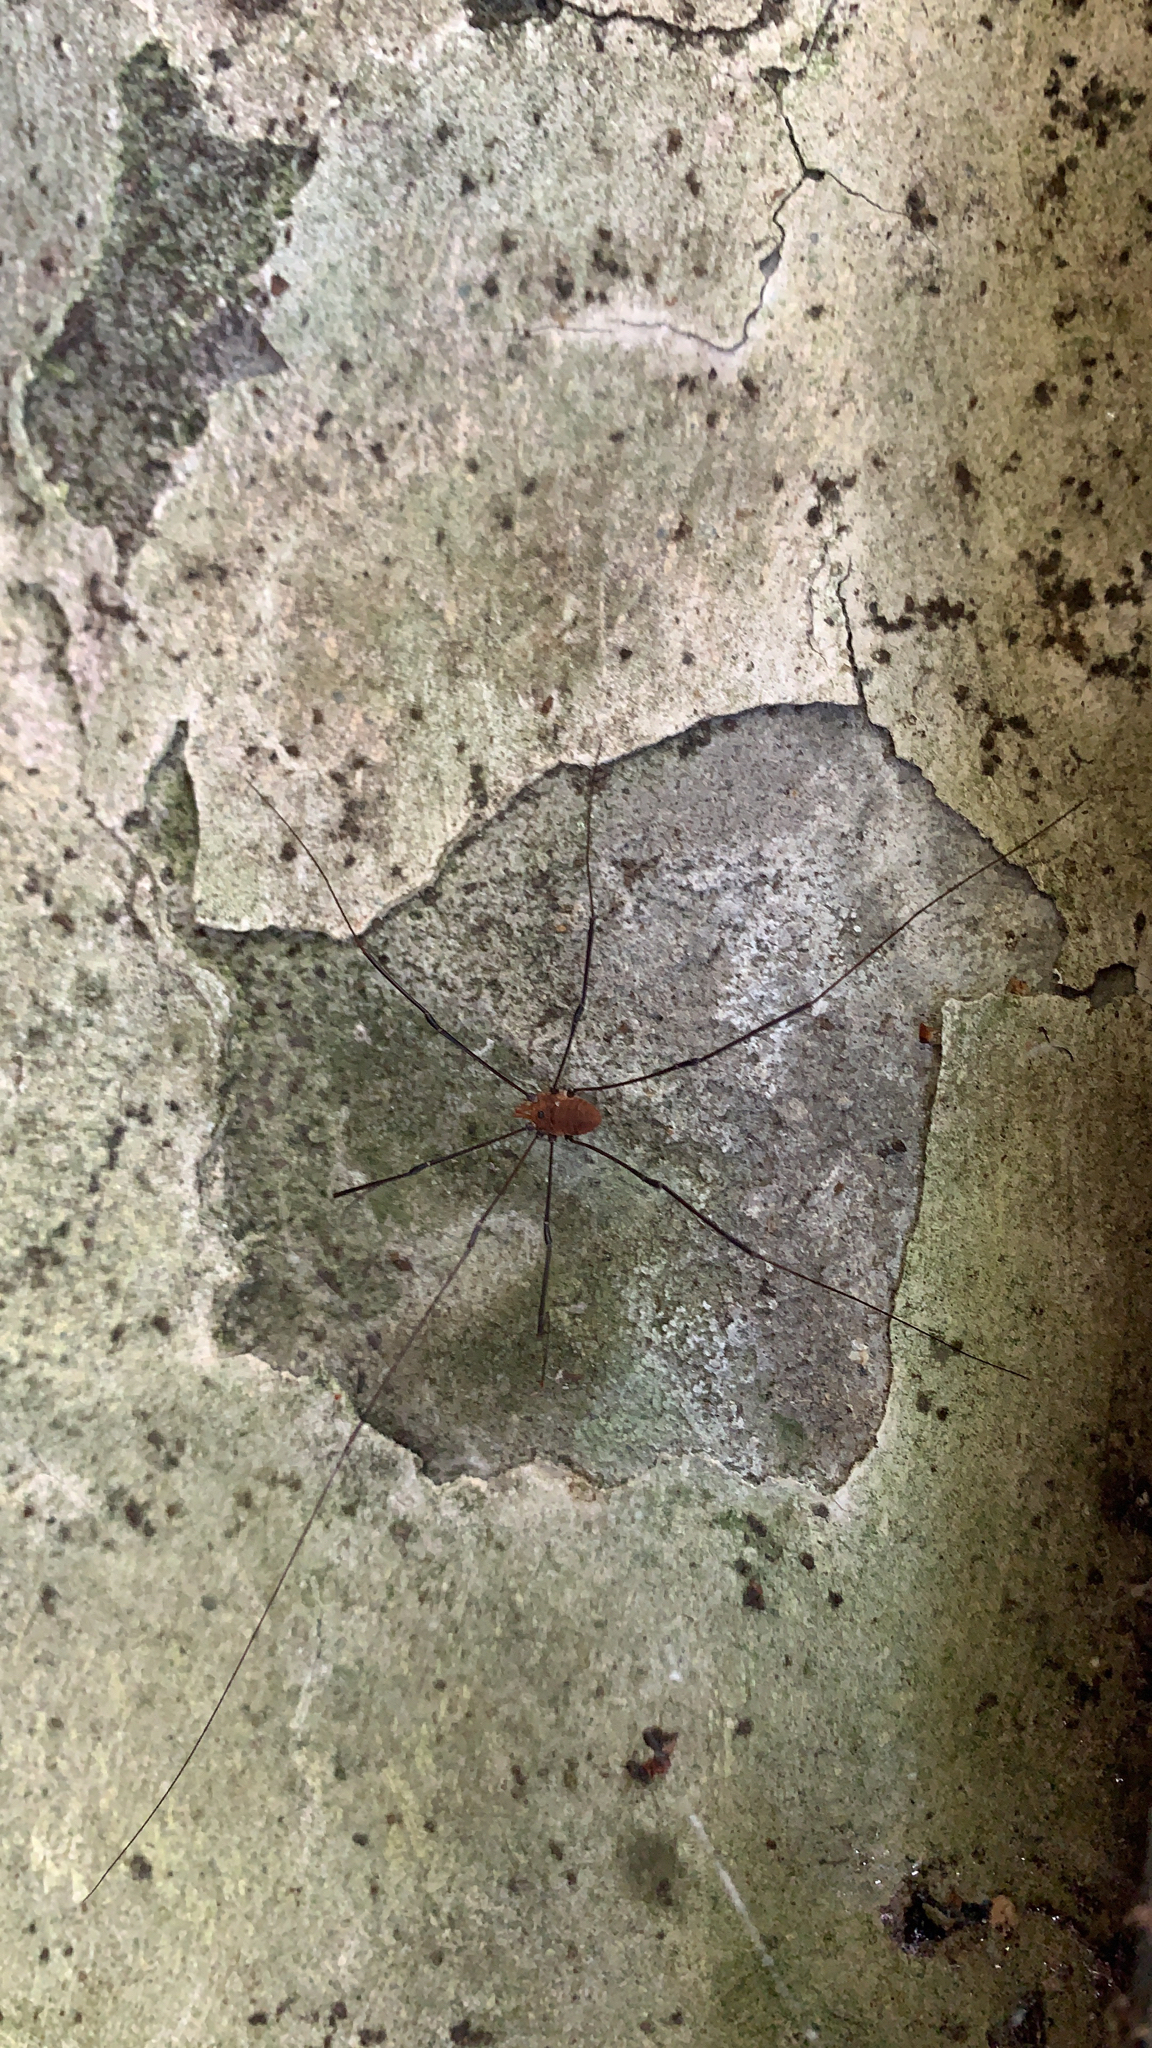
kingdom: Animalia
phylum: Arthropoda
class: Arachnida
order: Opiliones
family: Sclerosomatidae
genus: Leiobunum
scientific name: Leiobunum vittatum
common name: Eastern harvestman
